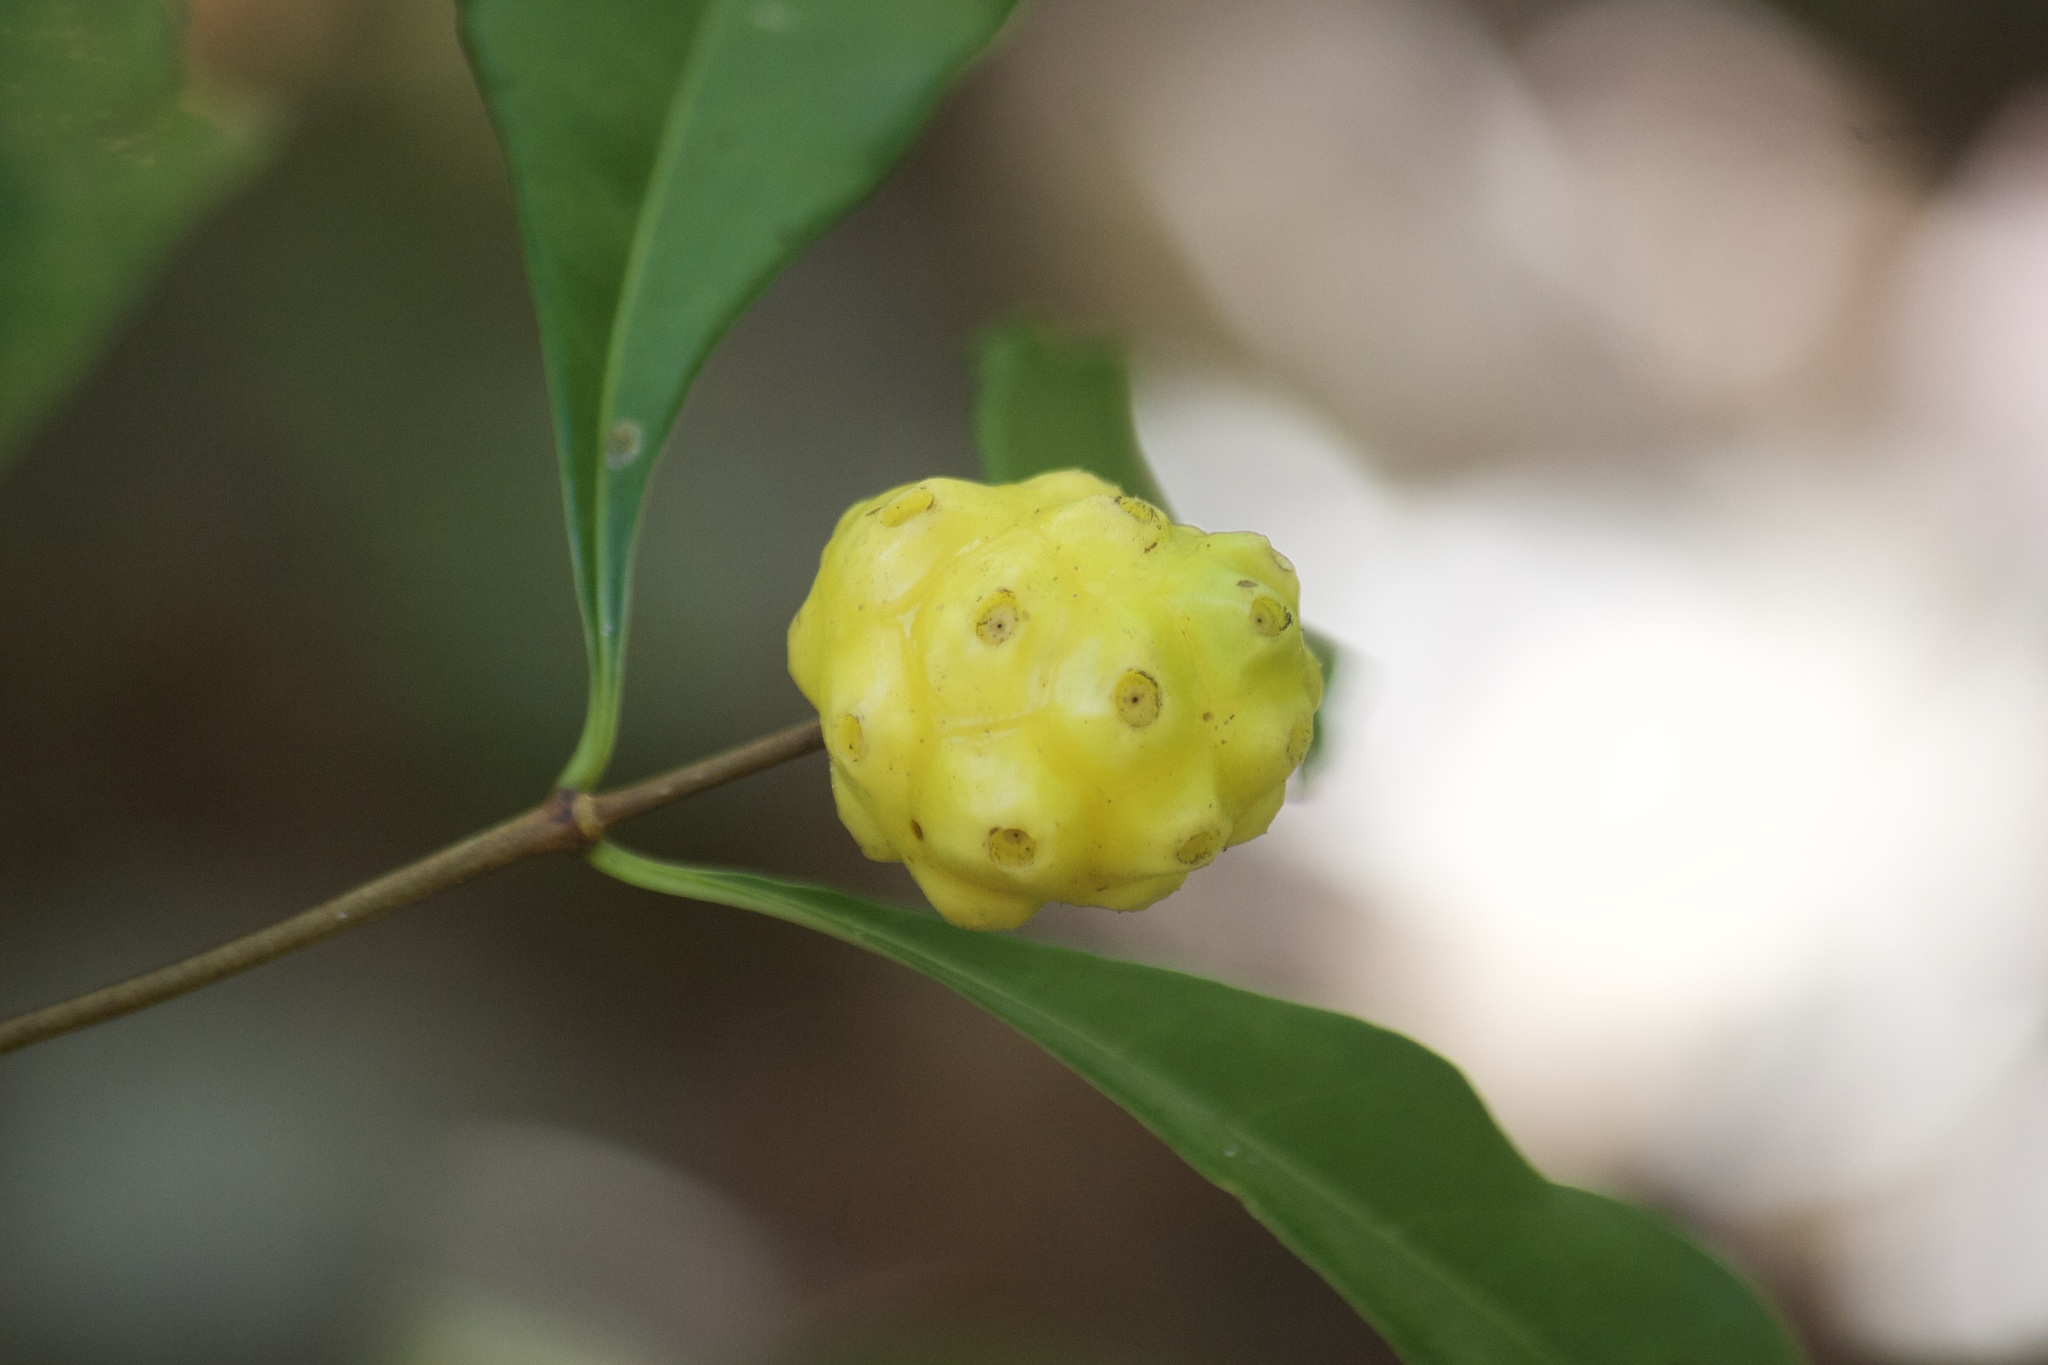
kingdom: Plantae
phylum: Tracheophyta
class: Magnoliopsida
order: Gentianales
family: Rubiaceae
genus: Morinda
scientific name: Morinda royoc
